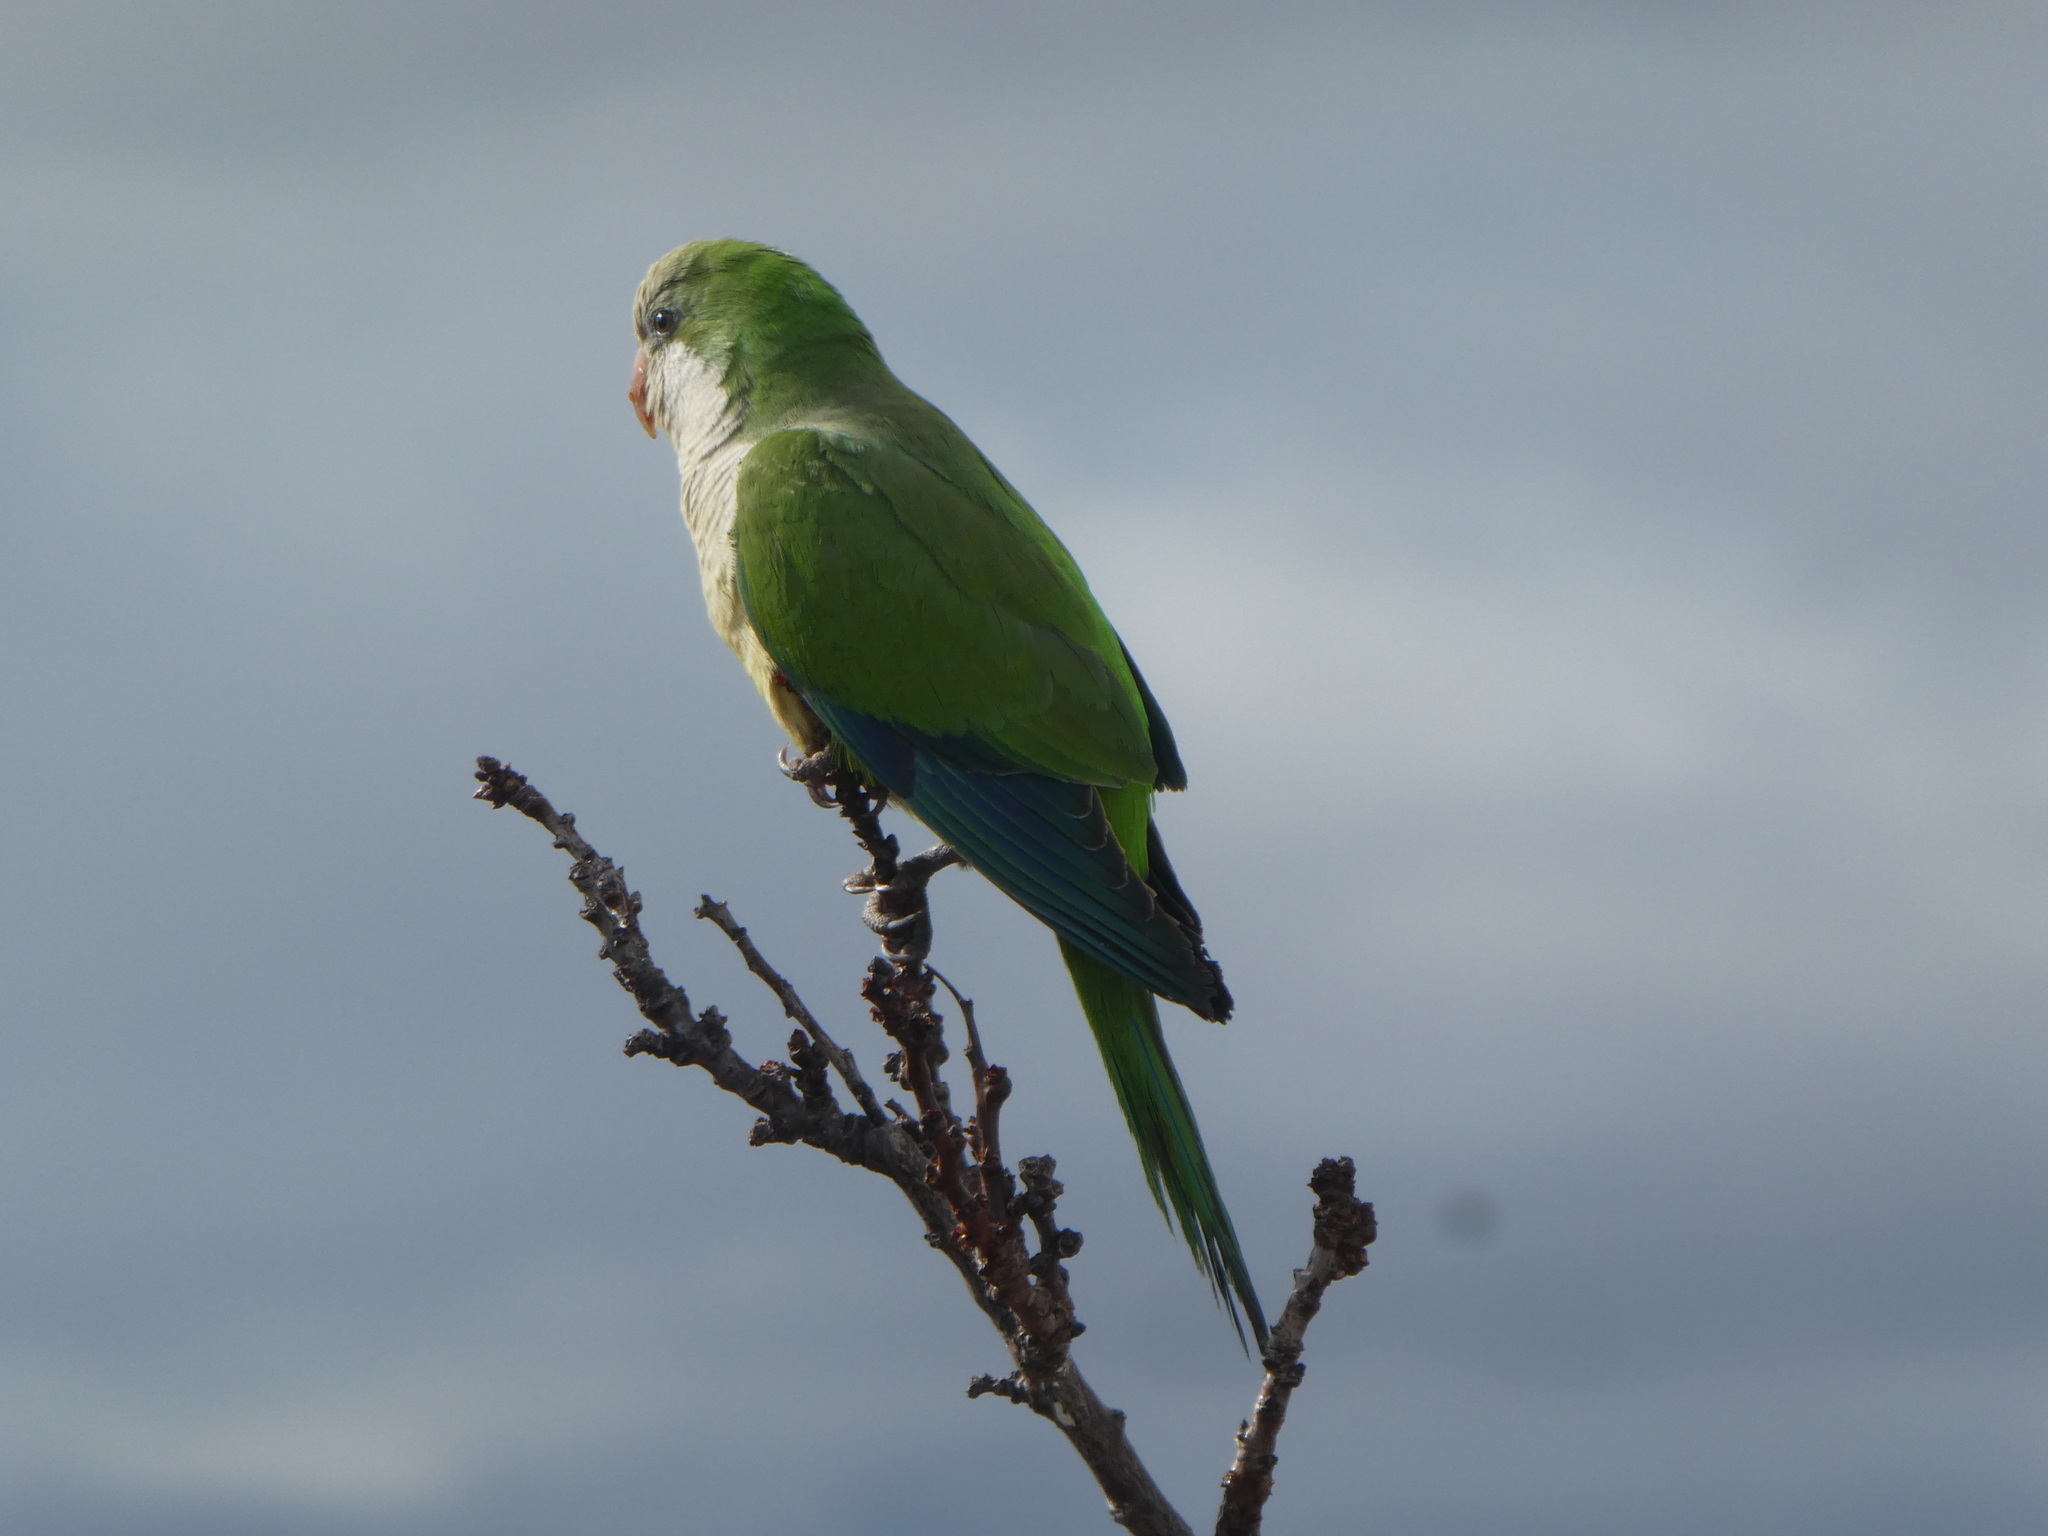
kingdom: Animalia
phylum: Chordata
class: Aves
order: Psittaciformes
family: Psittacidae
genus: Myiopsitta
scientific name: Myiopsitta monachus
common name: Monk parakeet
